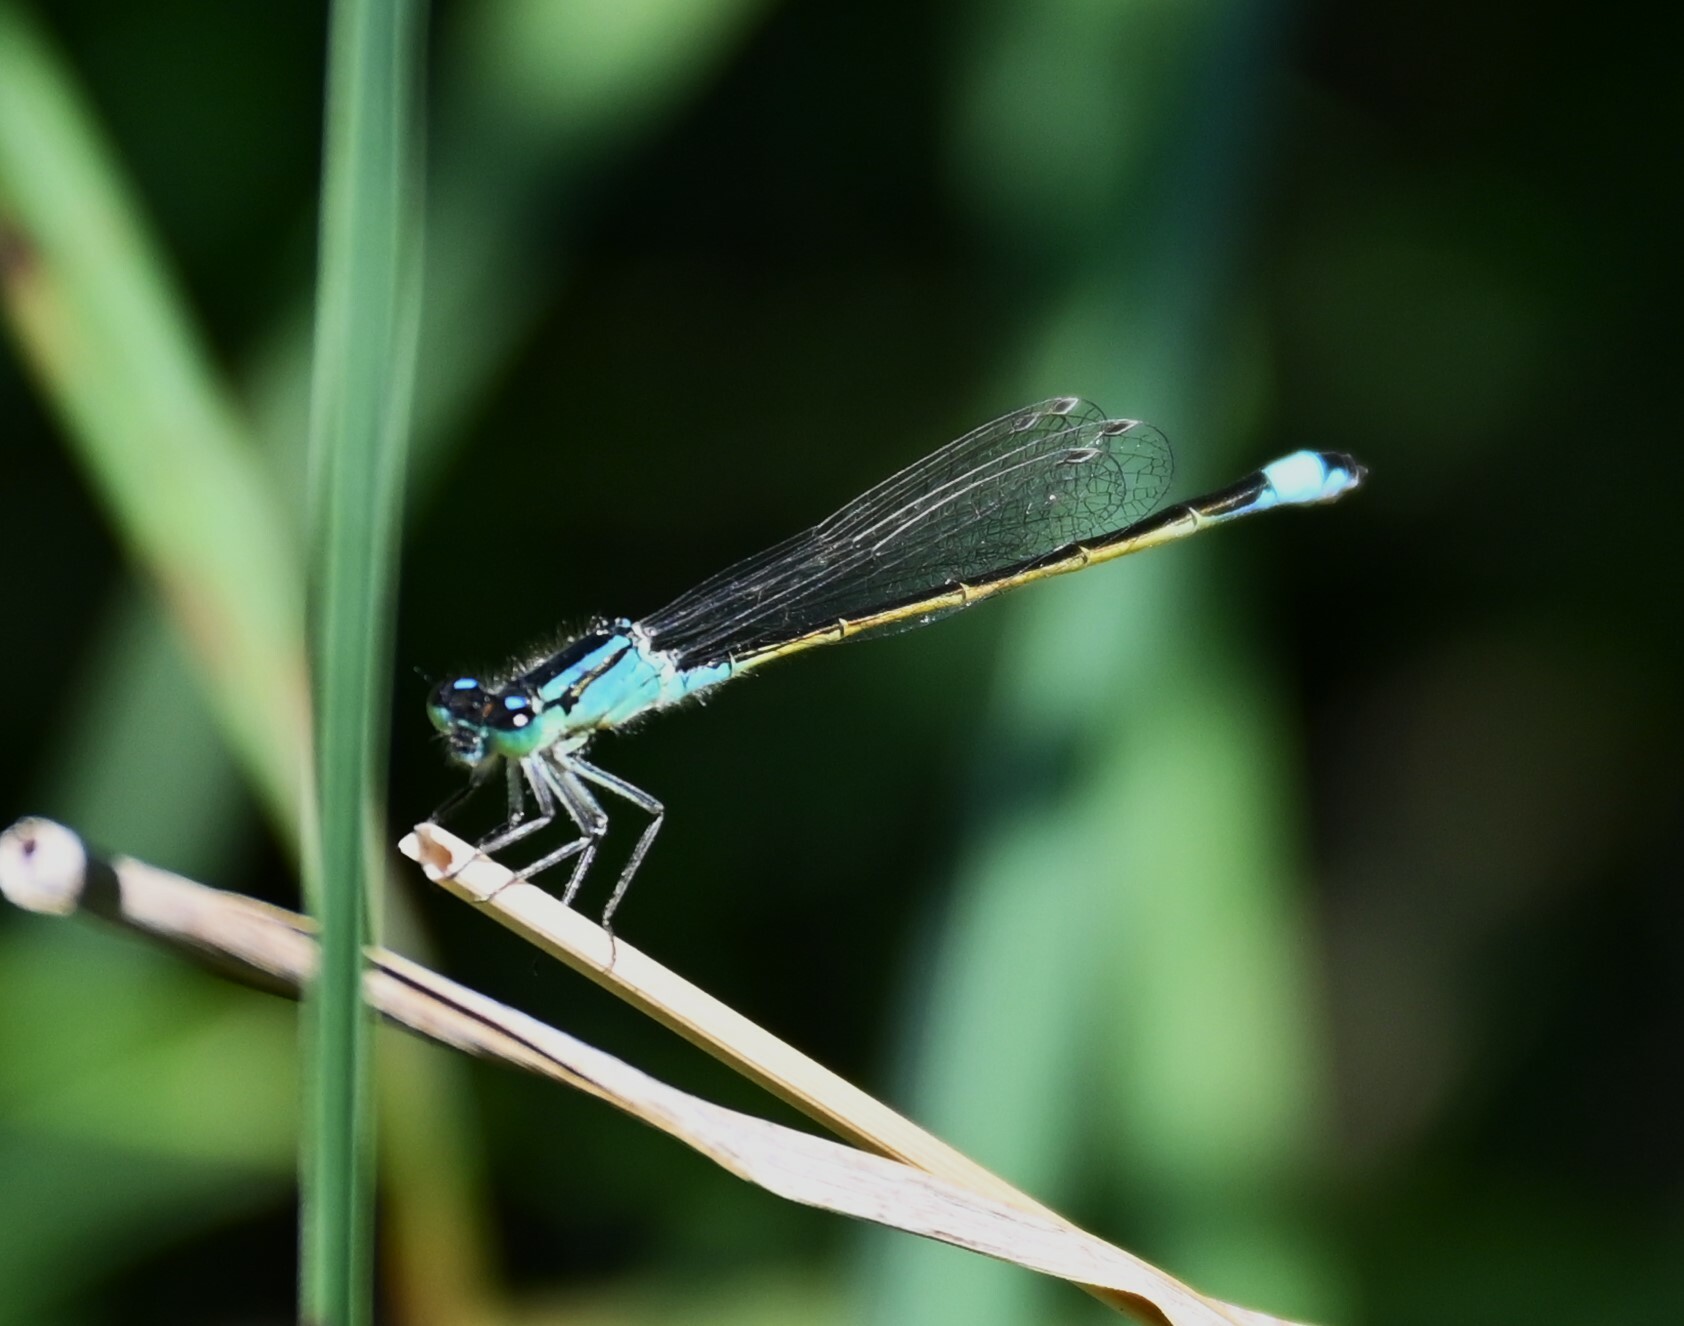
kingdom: Animalia
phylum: Arthropoda
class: Insecta
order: Odonata
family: Coenagrionidae
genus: Ischnura
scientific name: Ischnura elegans
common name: Blue-tailed damselfly
